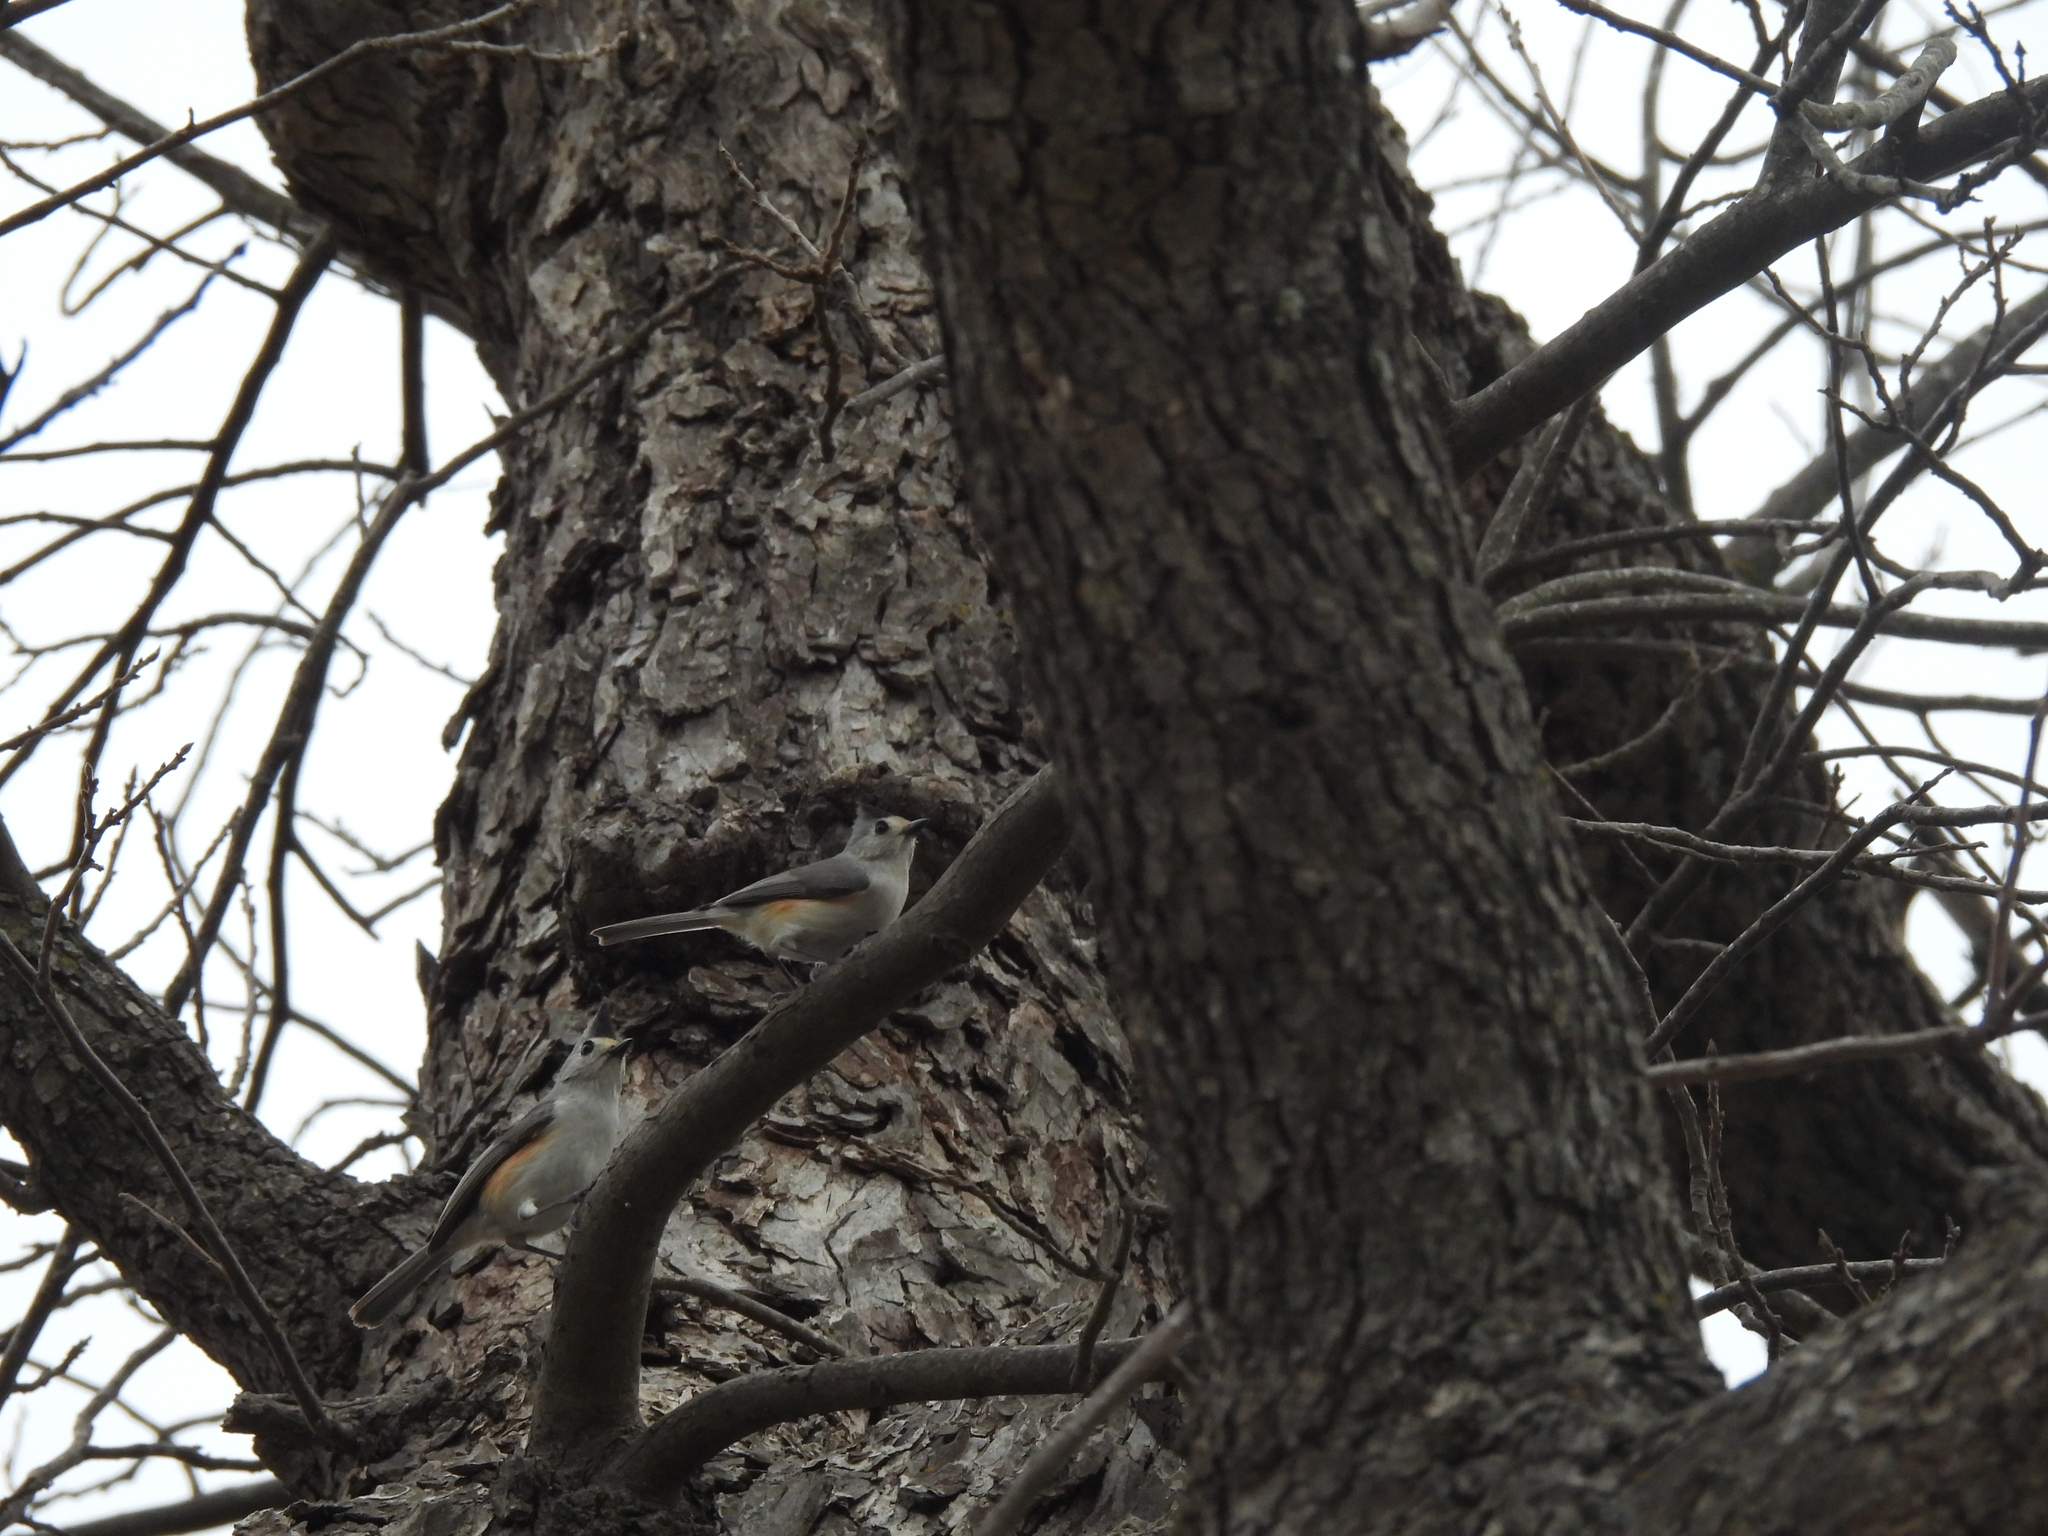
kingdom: Animalia
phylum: Chordata
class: Aves
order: Passeriformes
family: Paridae
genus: Baeolophus
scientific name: Baeolophus atricristatus
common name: Black-crested titmouse
